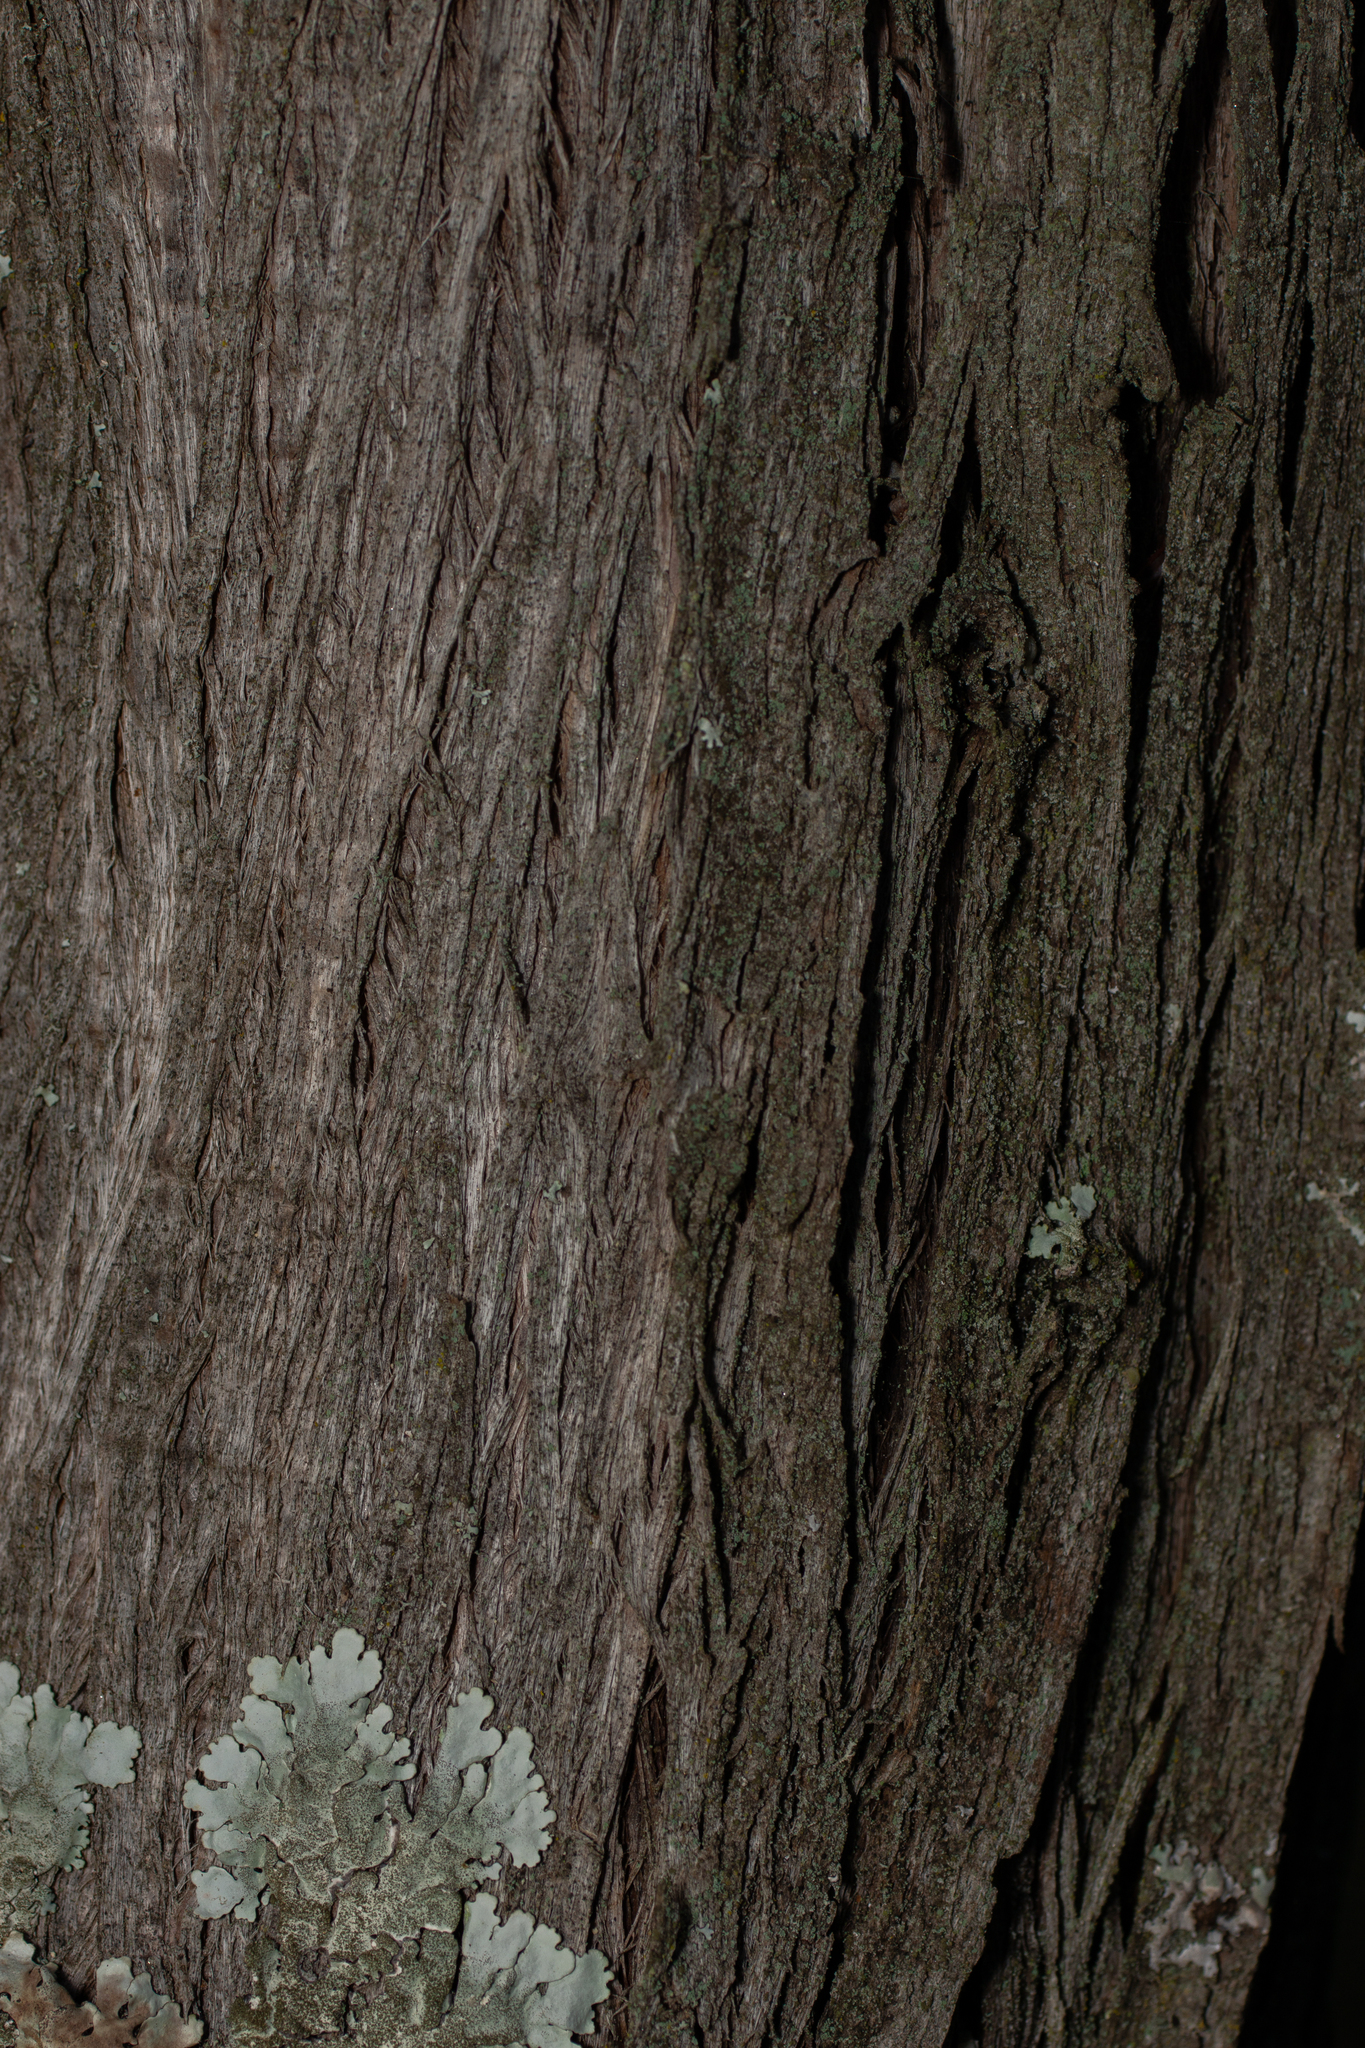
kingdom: Plantae
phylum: Tracheophyta
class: Pinopsida
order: Pinales
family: Cupressaceae
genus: Juniperus
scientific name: Juniperus oxycedrus
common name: Prickly juniper
